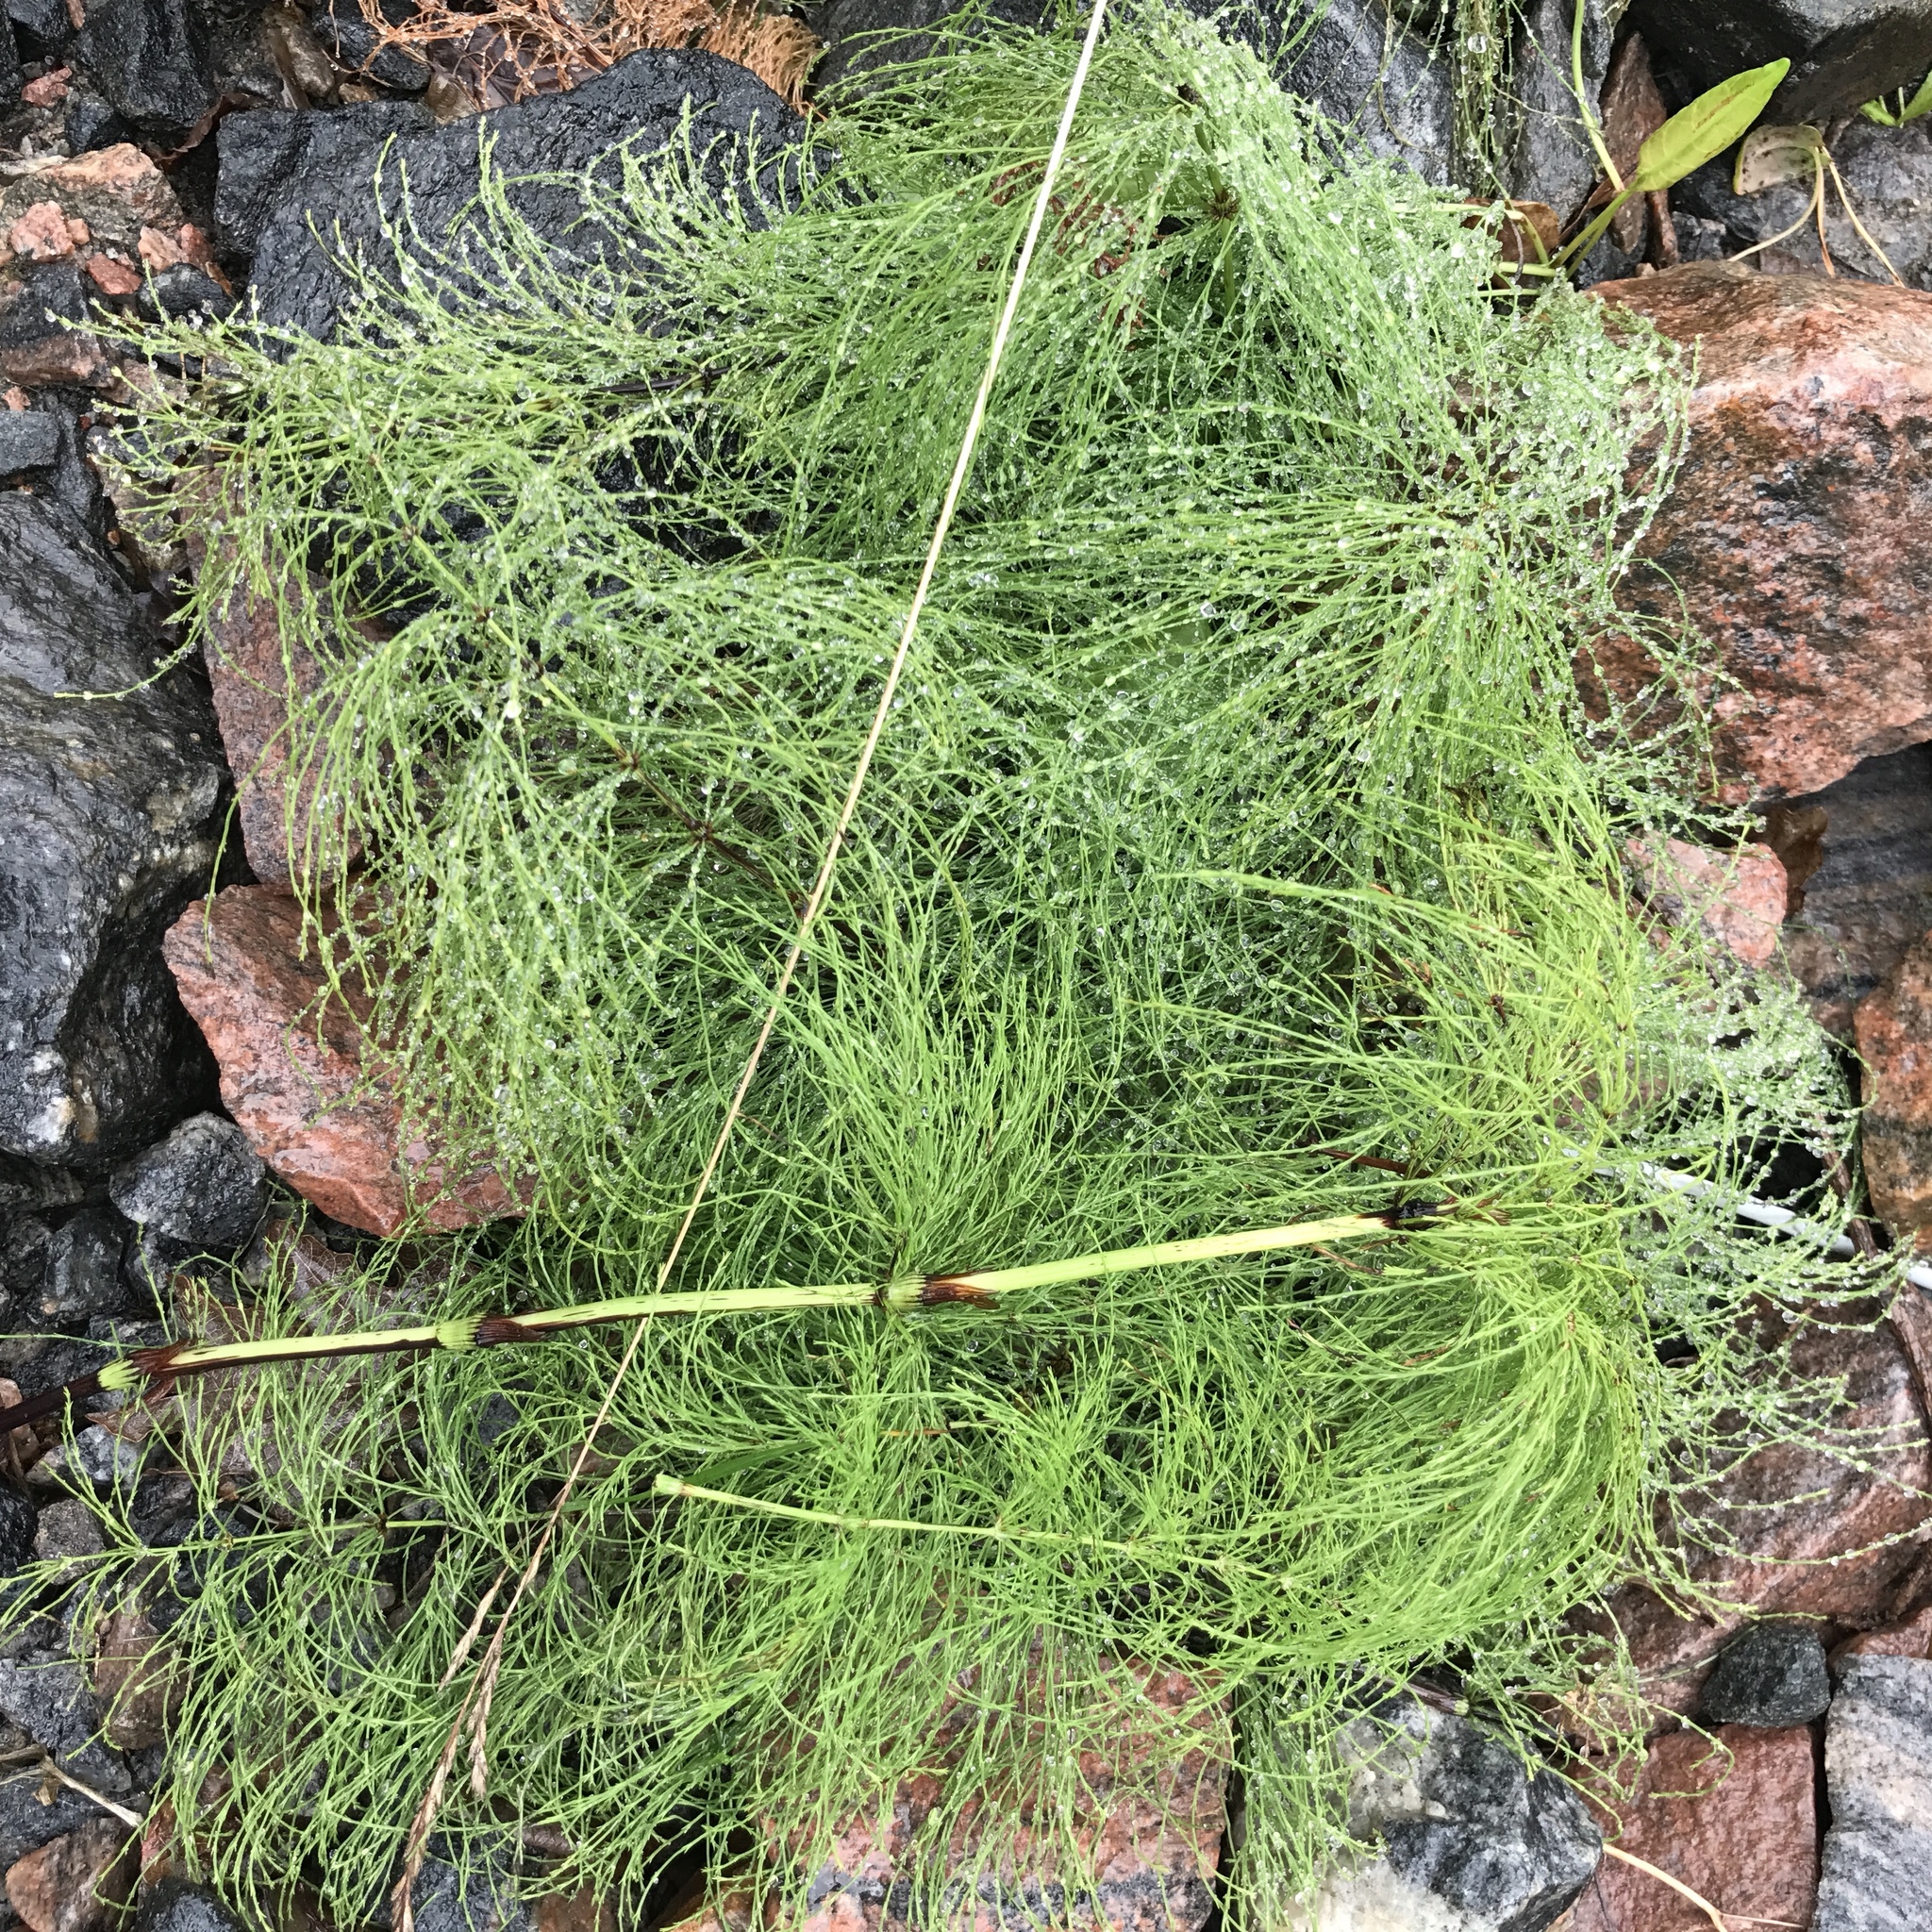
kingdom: Plantae
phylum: Tracheophyta
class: Polypodiopsida
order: Equisetales
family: Equisetaceae
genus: Equisetum
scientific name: Equisetum sylvaticum
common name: Wood horsetail
